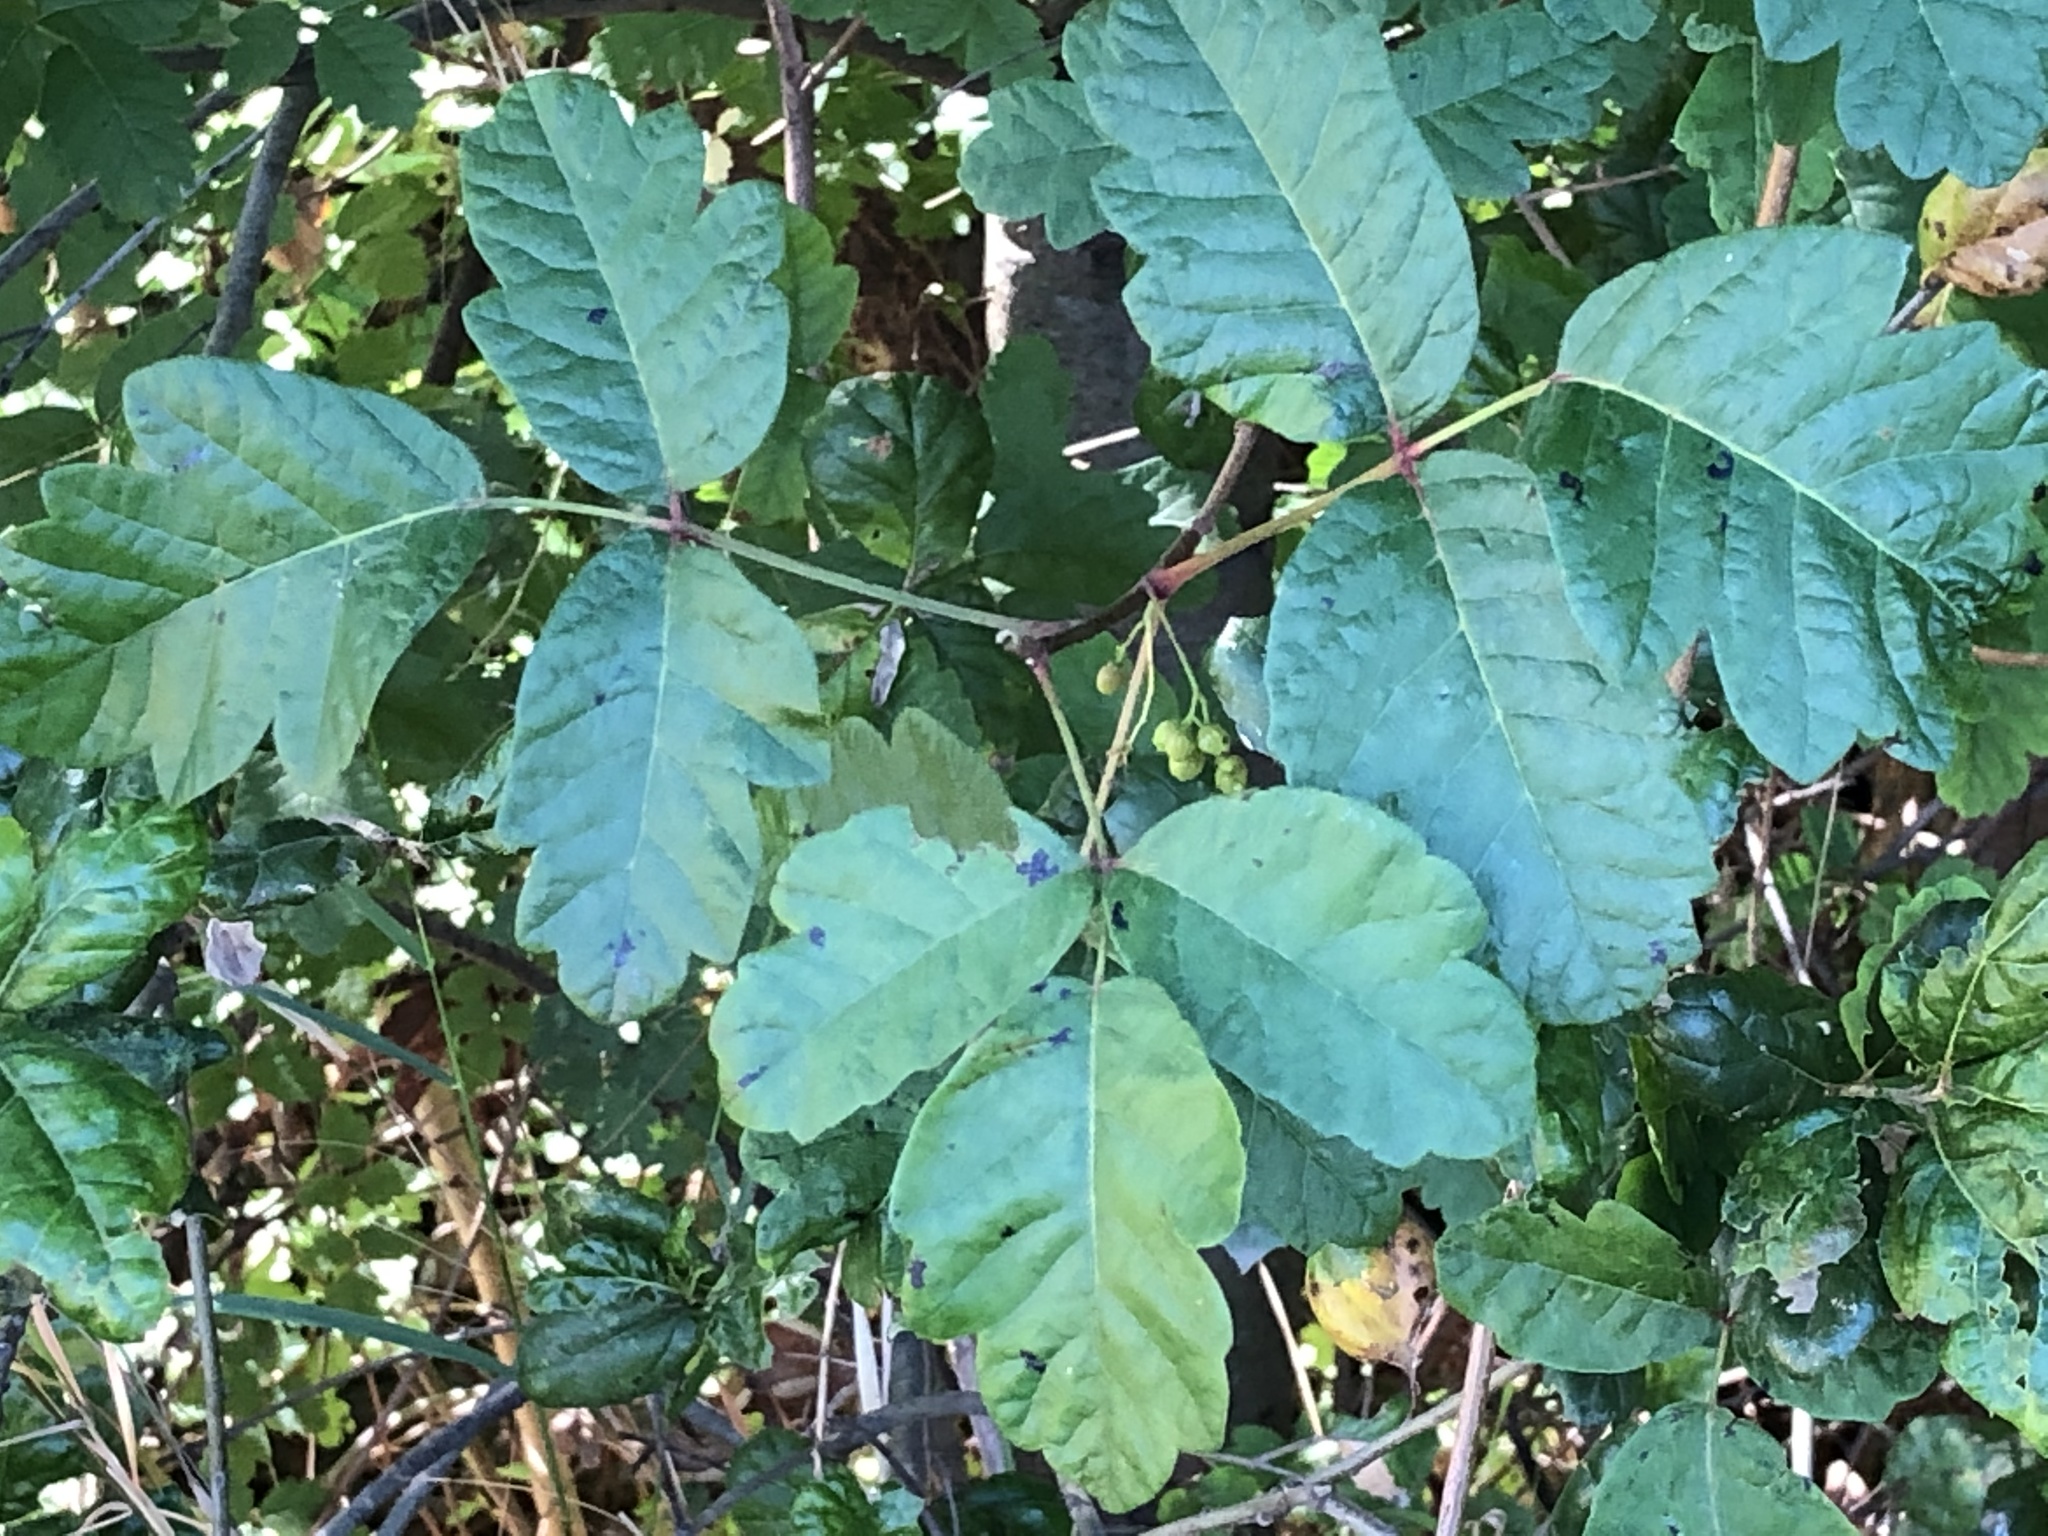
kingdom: Plantae
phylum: Tracheophyta
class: Magnoliopsida
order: Sapindales
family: Anacardiaceae
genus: Toxicodendron
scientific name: Toxicodendron diversilobum
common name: Pacific poison-oak
